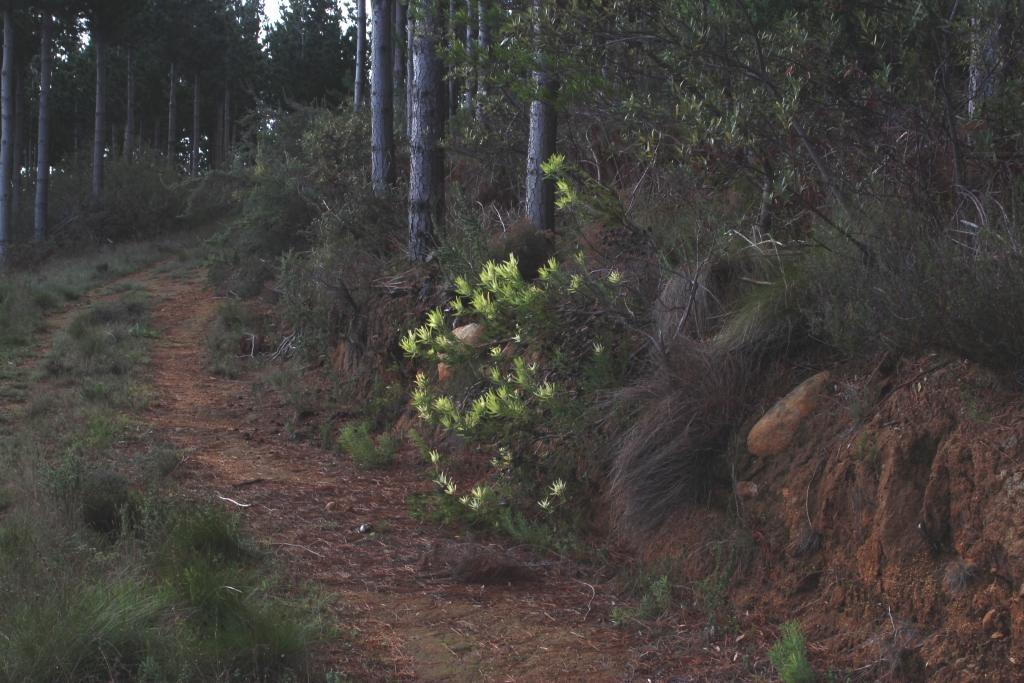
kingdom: Plantae
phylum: Tracheophyta
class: Magnoliopsida
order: Proteales
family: Proteaceae
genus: Leucadendron
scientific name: Leucadendron salignum
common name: Common sunshine conebush
